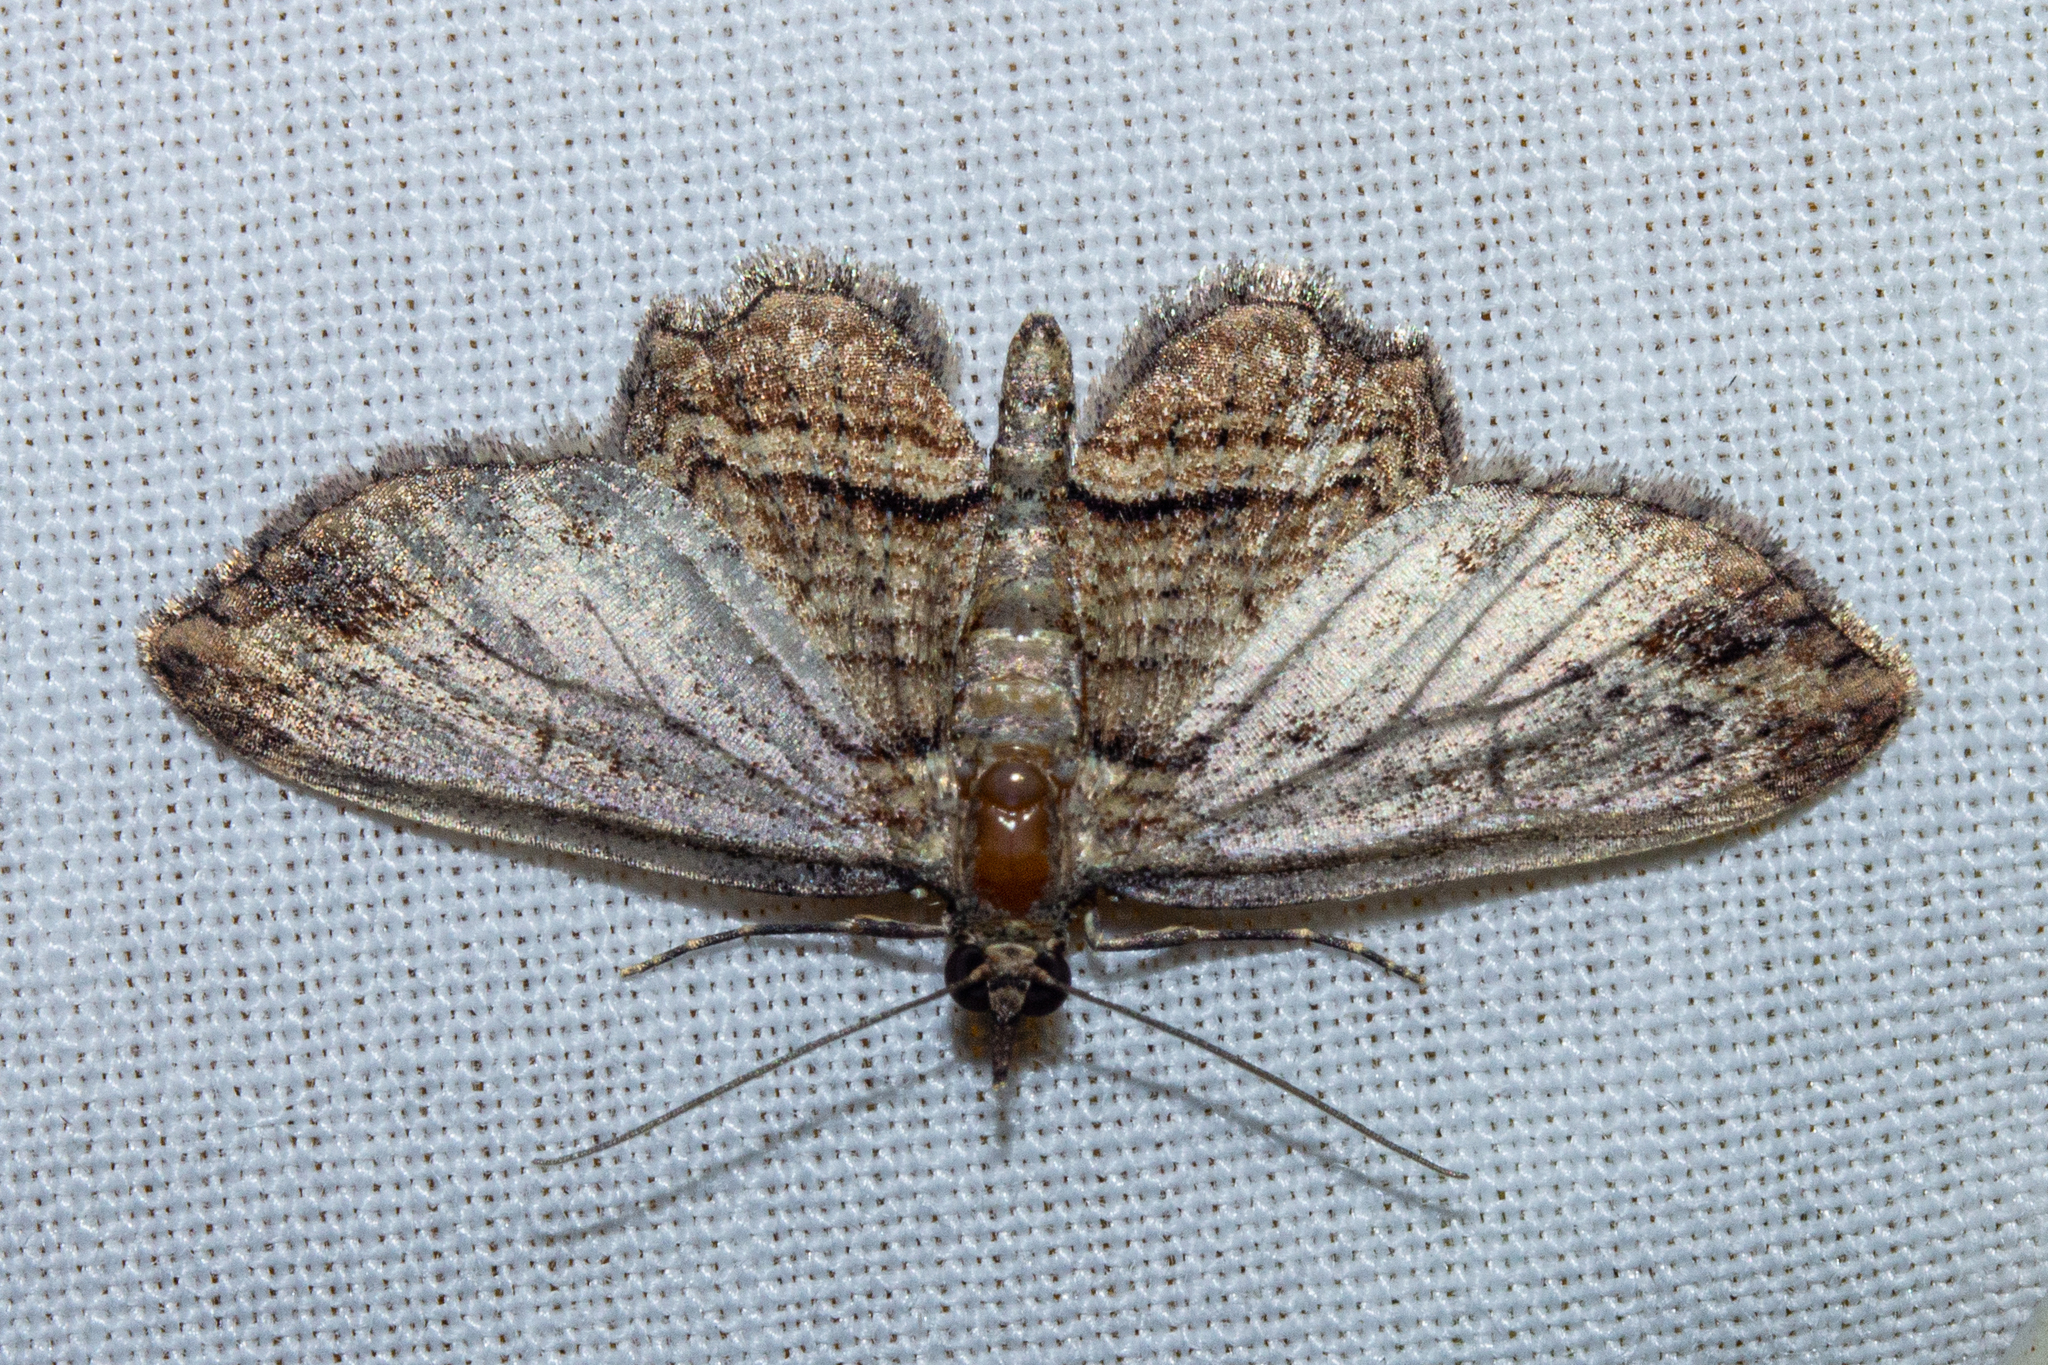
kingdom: Animalia
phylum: Arthropoda
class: Insecta
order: Lepidoptera
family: Geometridae
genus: Chloroclystis
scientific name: Chloroclystis filata
